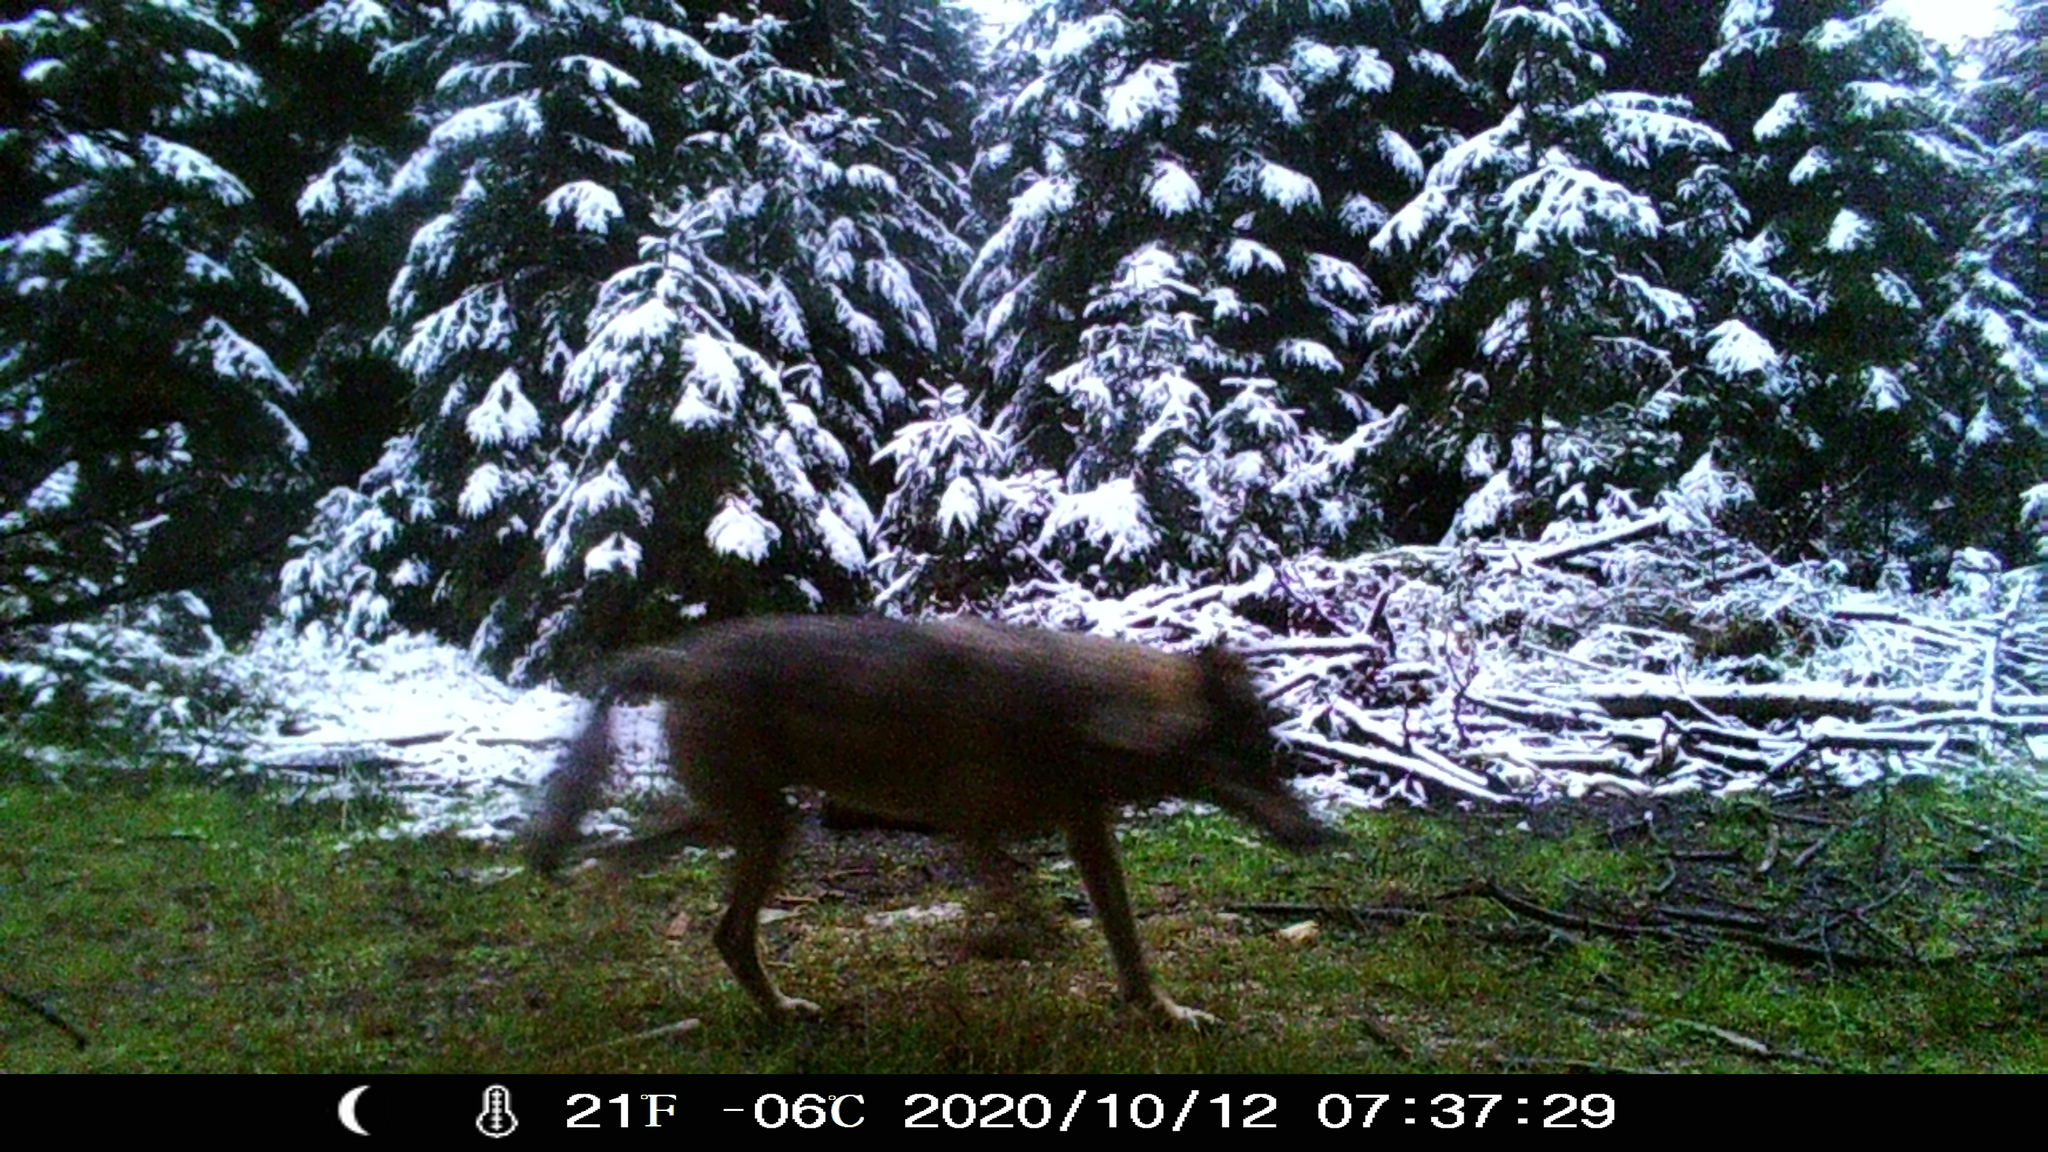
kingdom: Animalia
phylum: Chordata
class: Mammalia
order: Carnivora
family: Canidae
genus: Canis
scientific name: Canis lupus
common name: Gray wolf
